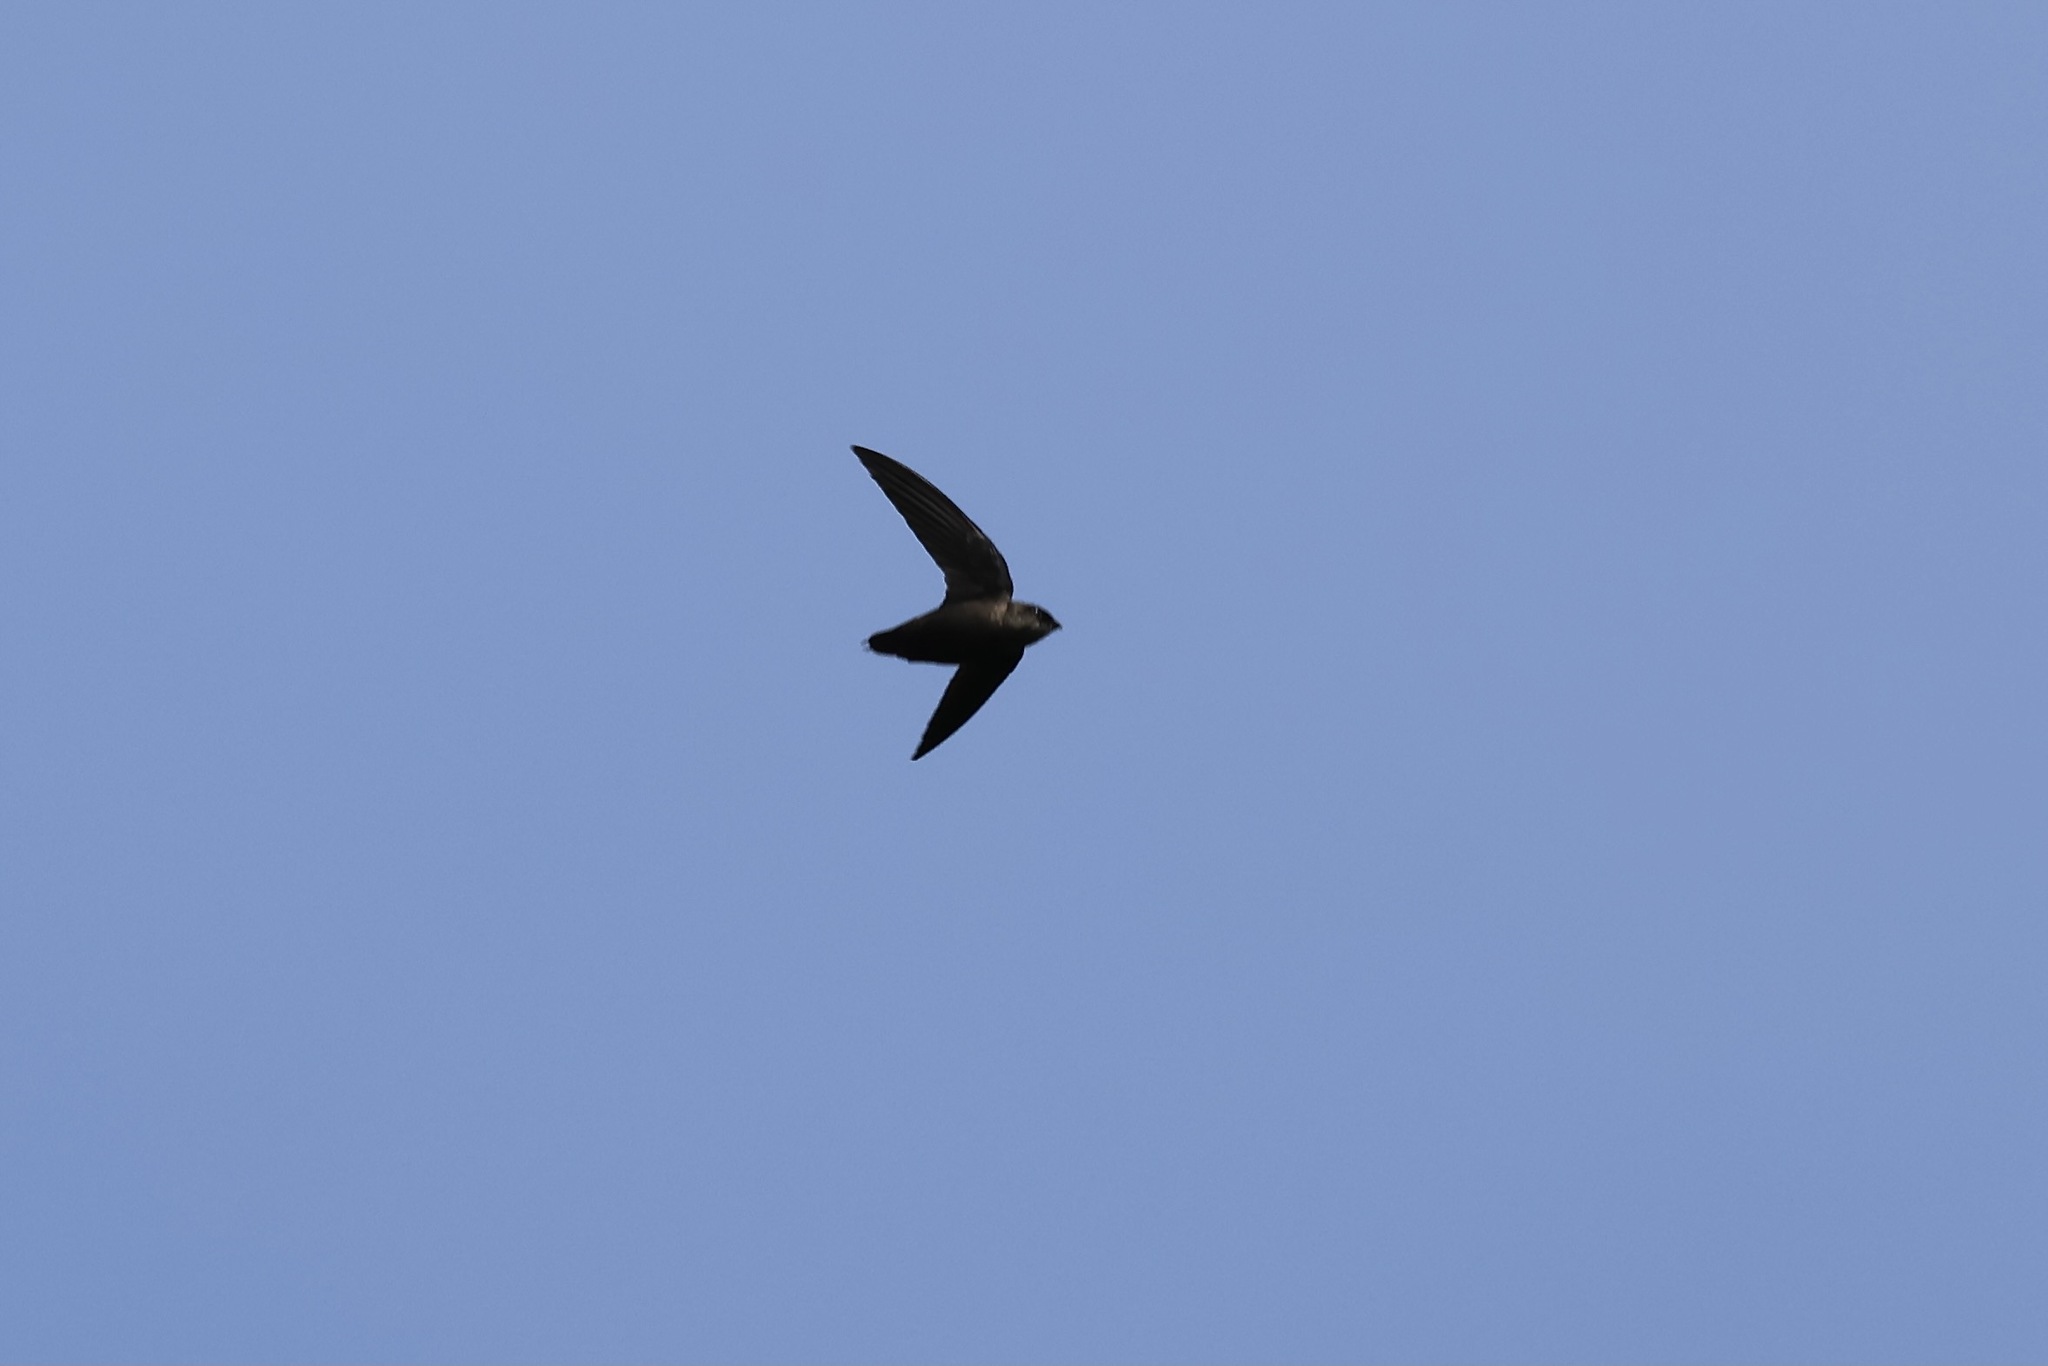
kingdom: Animalia
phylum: Chordata
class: Aves
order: Apodiformes
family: Apodidae
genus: Chaetura
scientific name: Chaetura vauxi
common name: Vaux's swift
